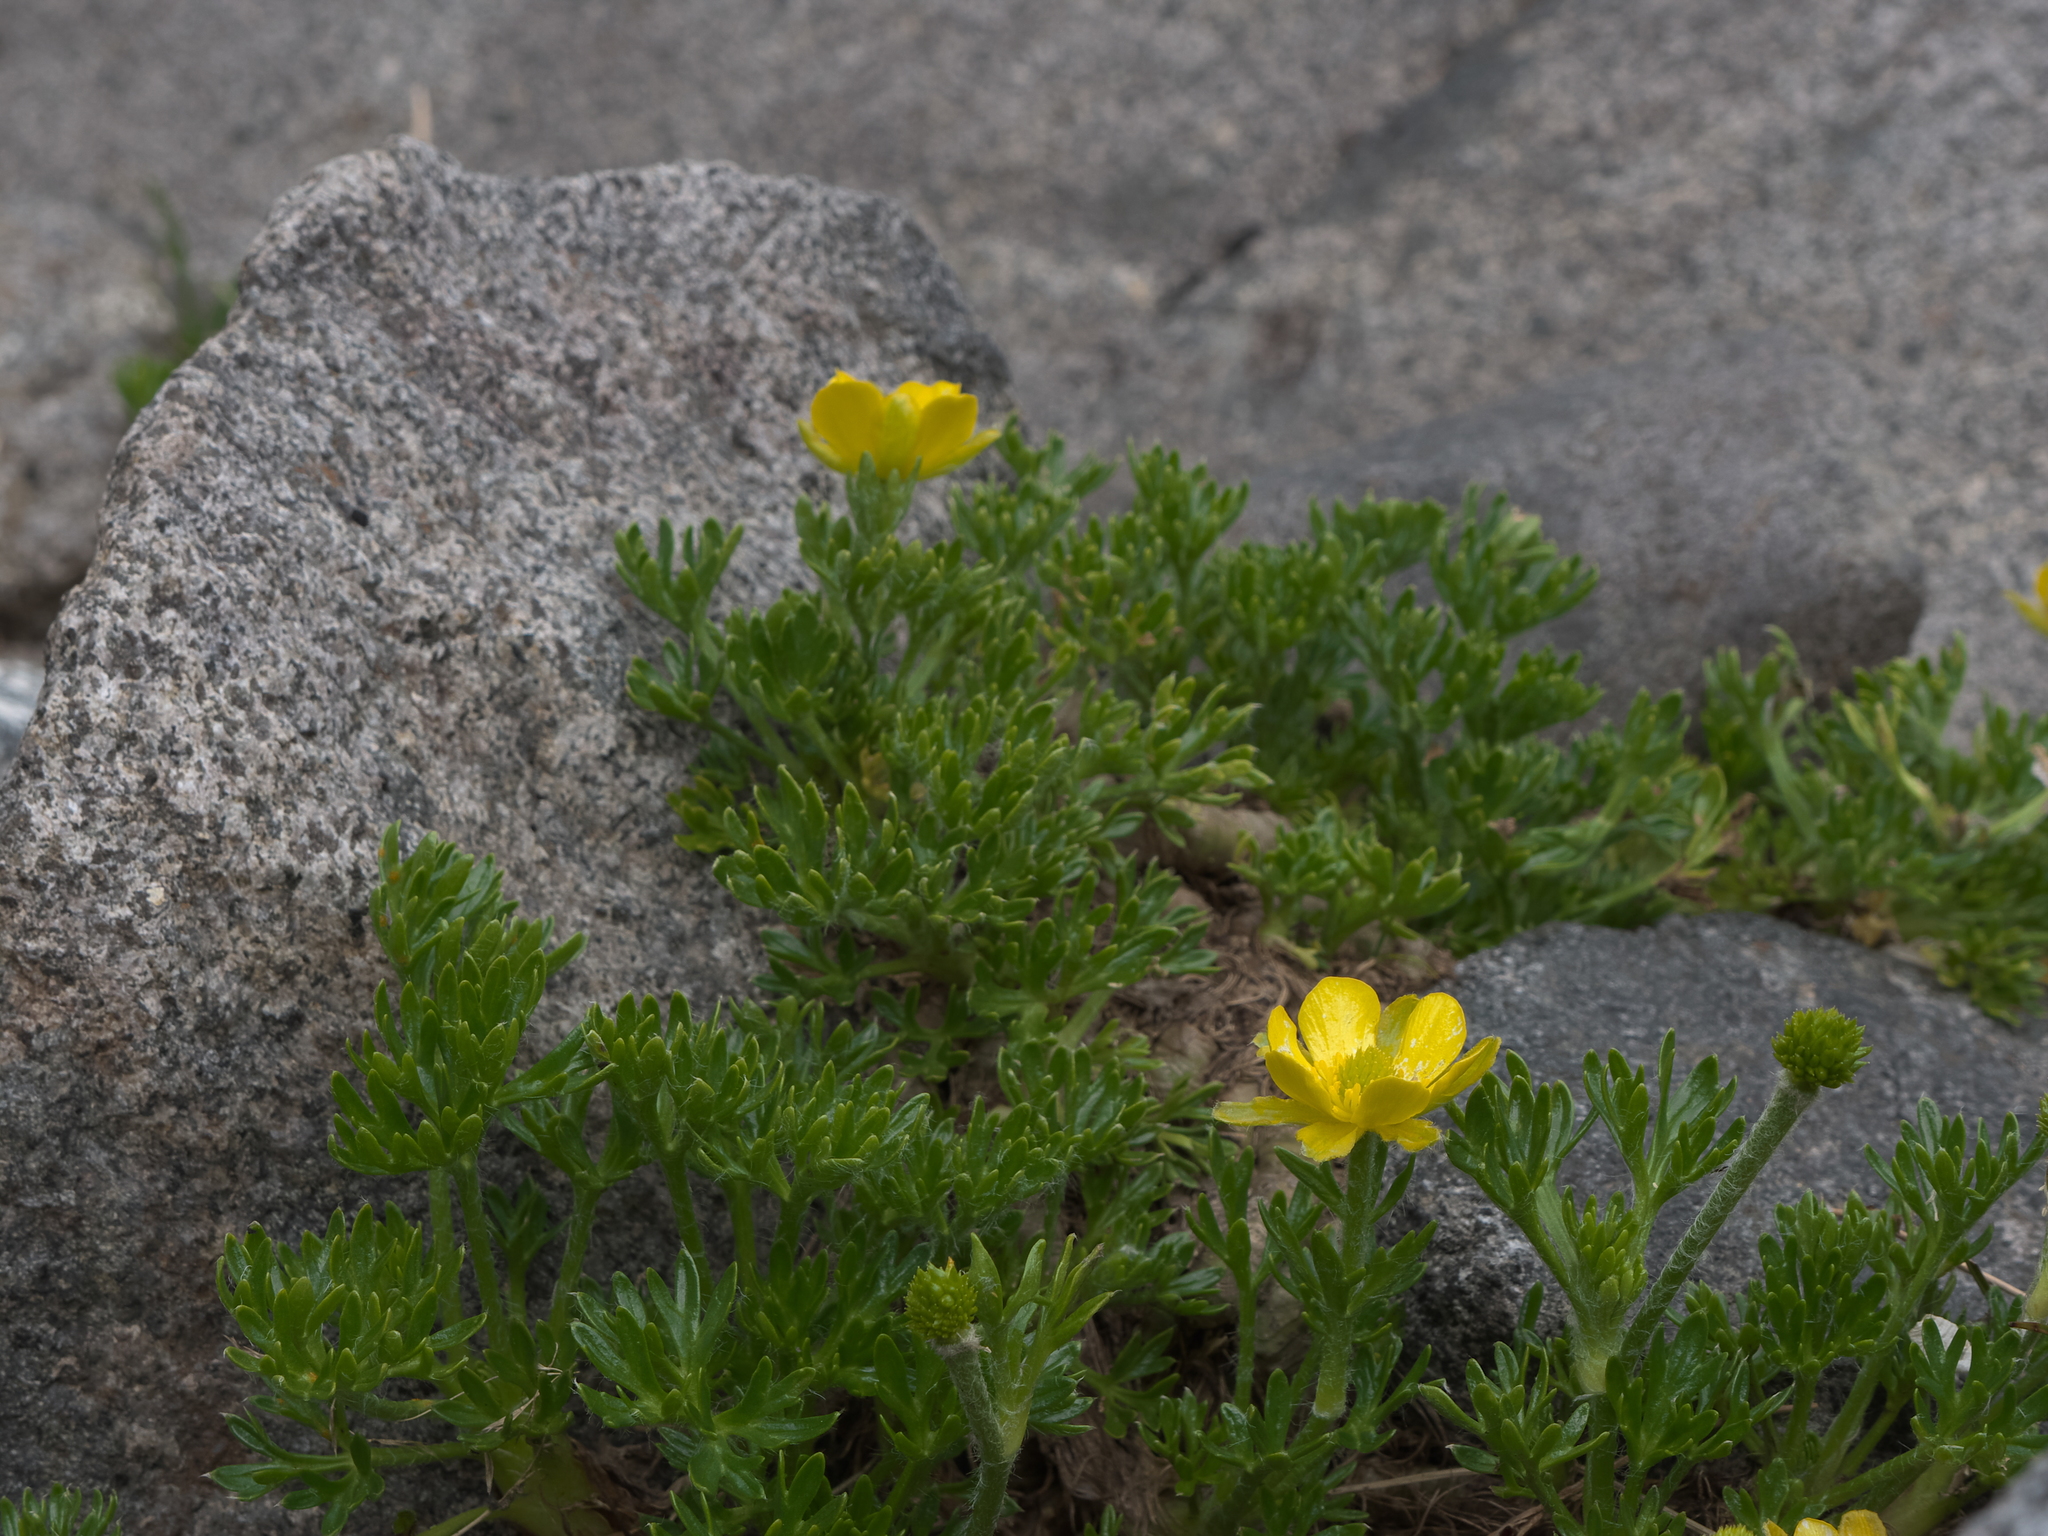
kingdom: Plantae
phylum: Tracheophyta
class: Magnoliopsida
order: Ranunculales
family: Ranunculaceae
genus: Ranunculus
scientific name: Ranunculus sericophyllus
